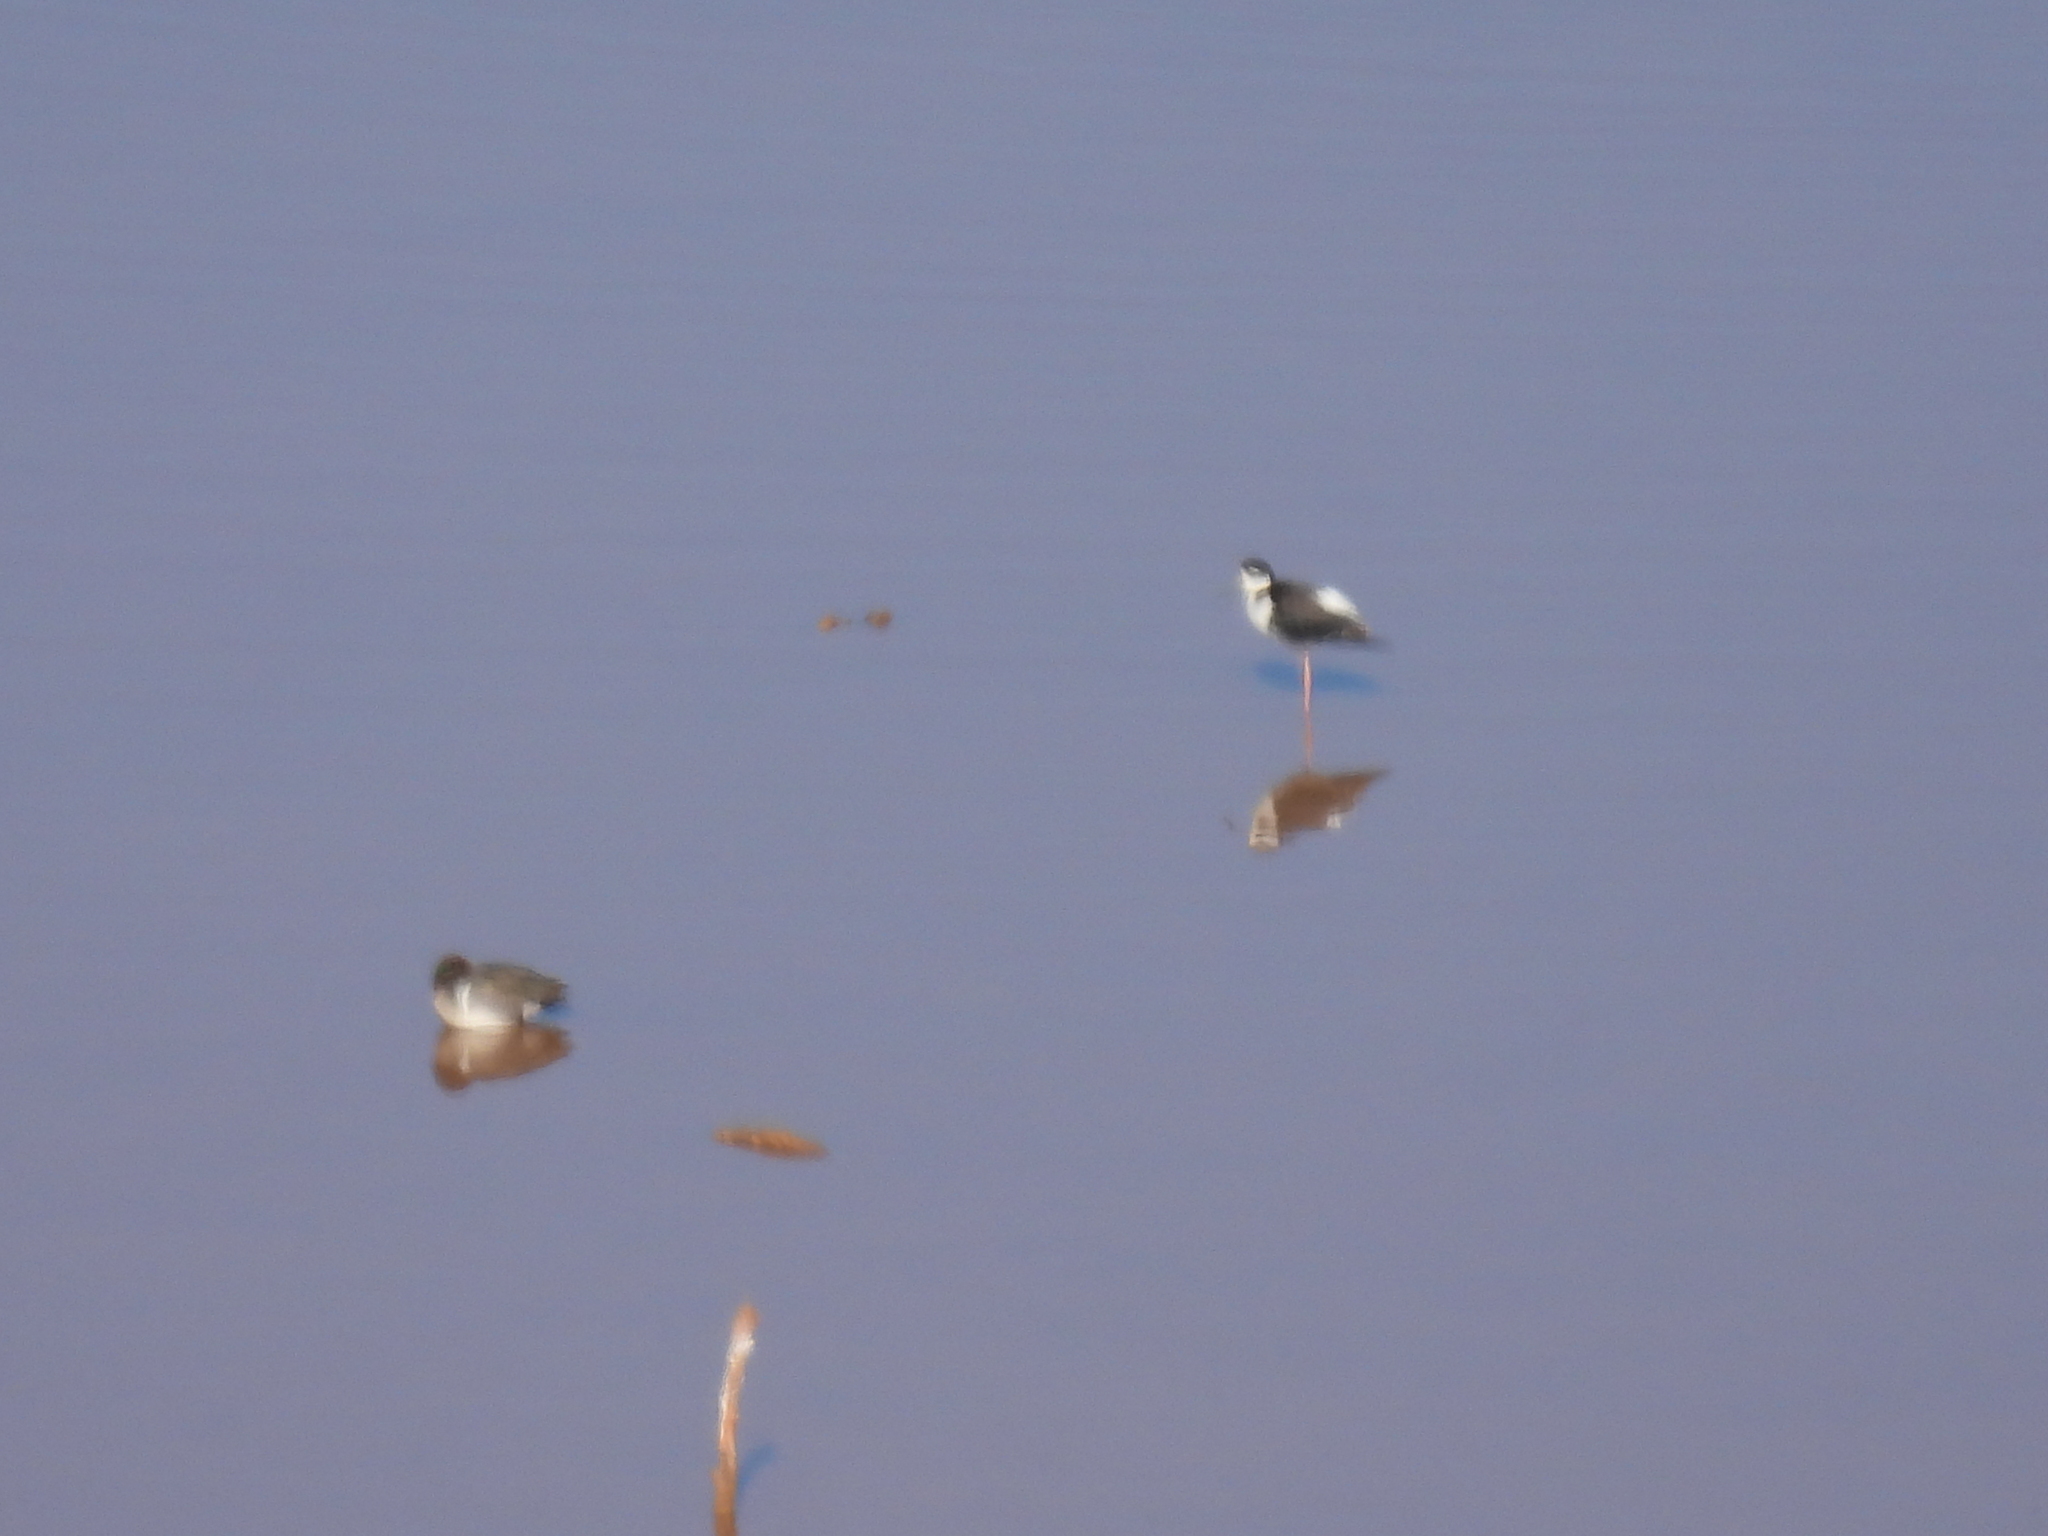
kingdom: Animalia
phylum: Chordata
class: Aves
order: Charadriiformes
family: Recurvirostridae
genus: Himantopus
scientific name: Himantopus mexicanus
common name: Black-necked stilt
